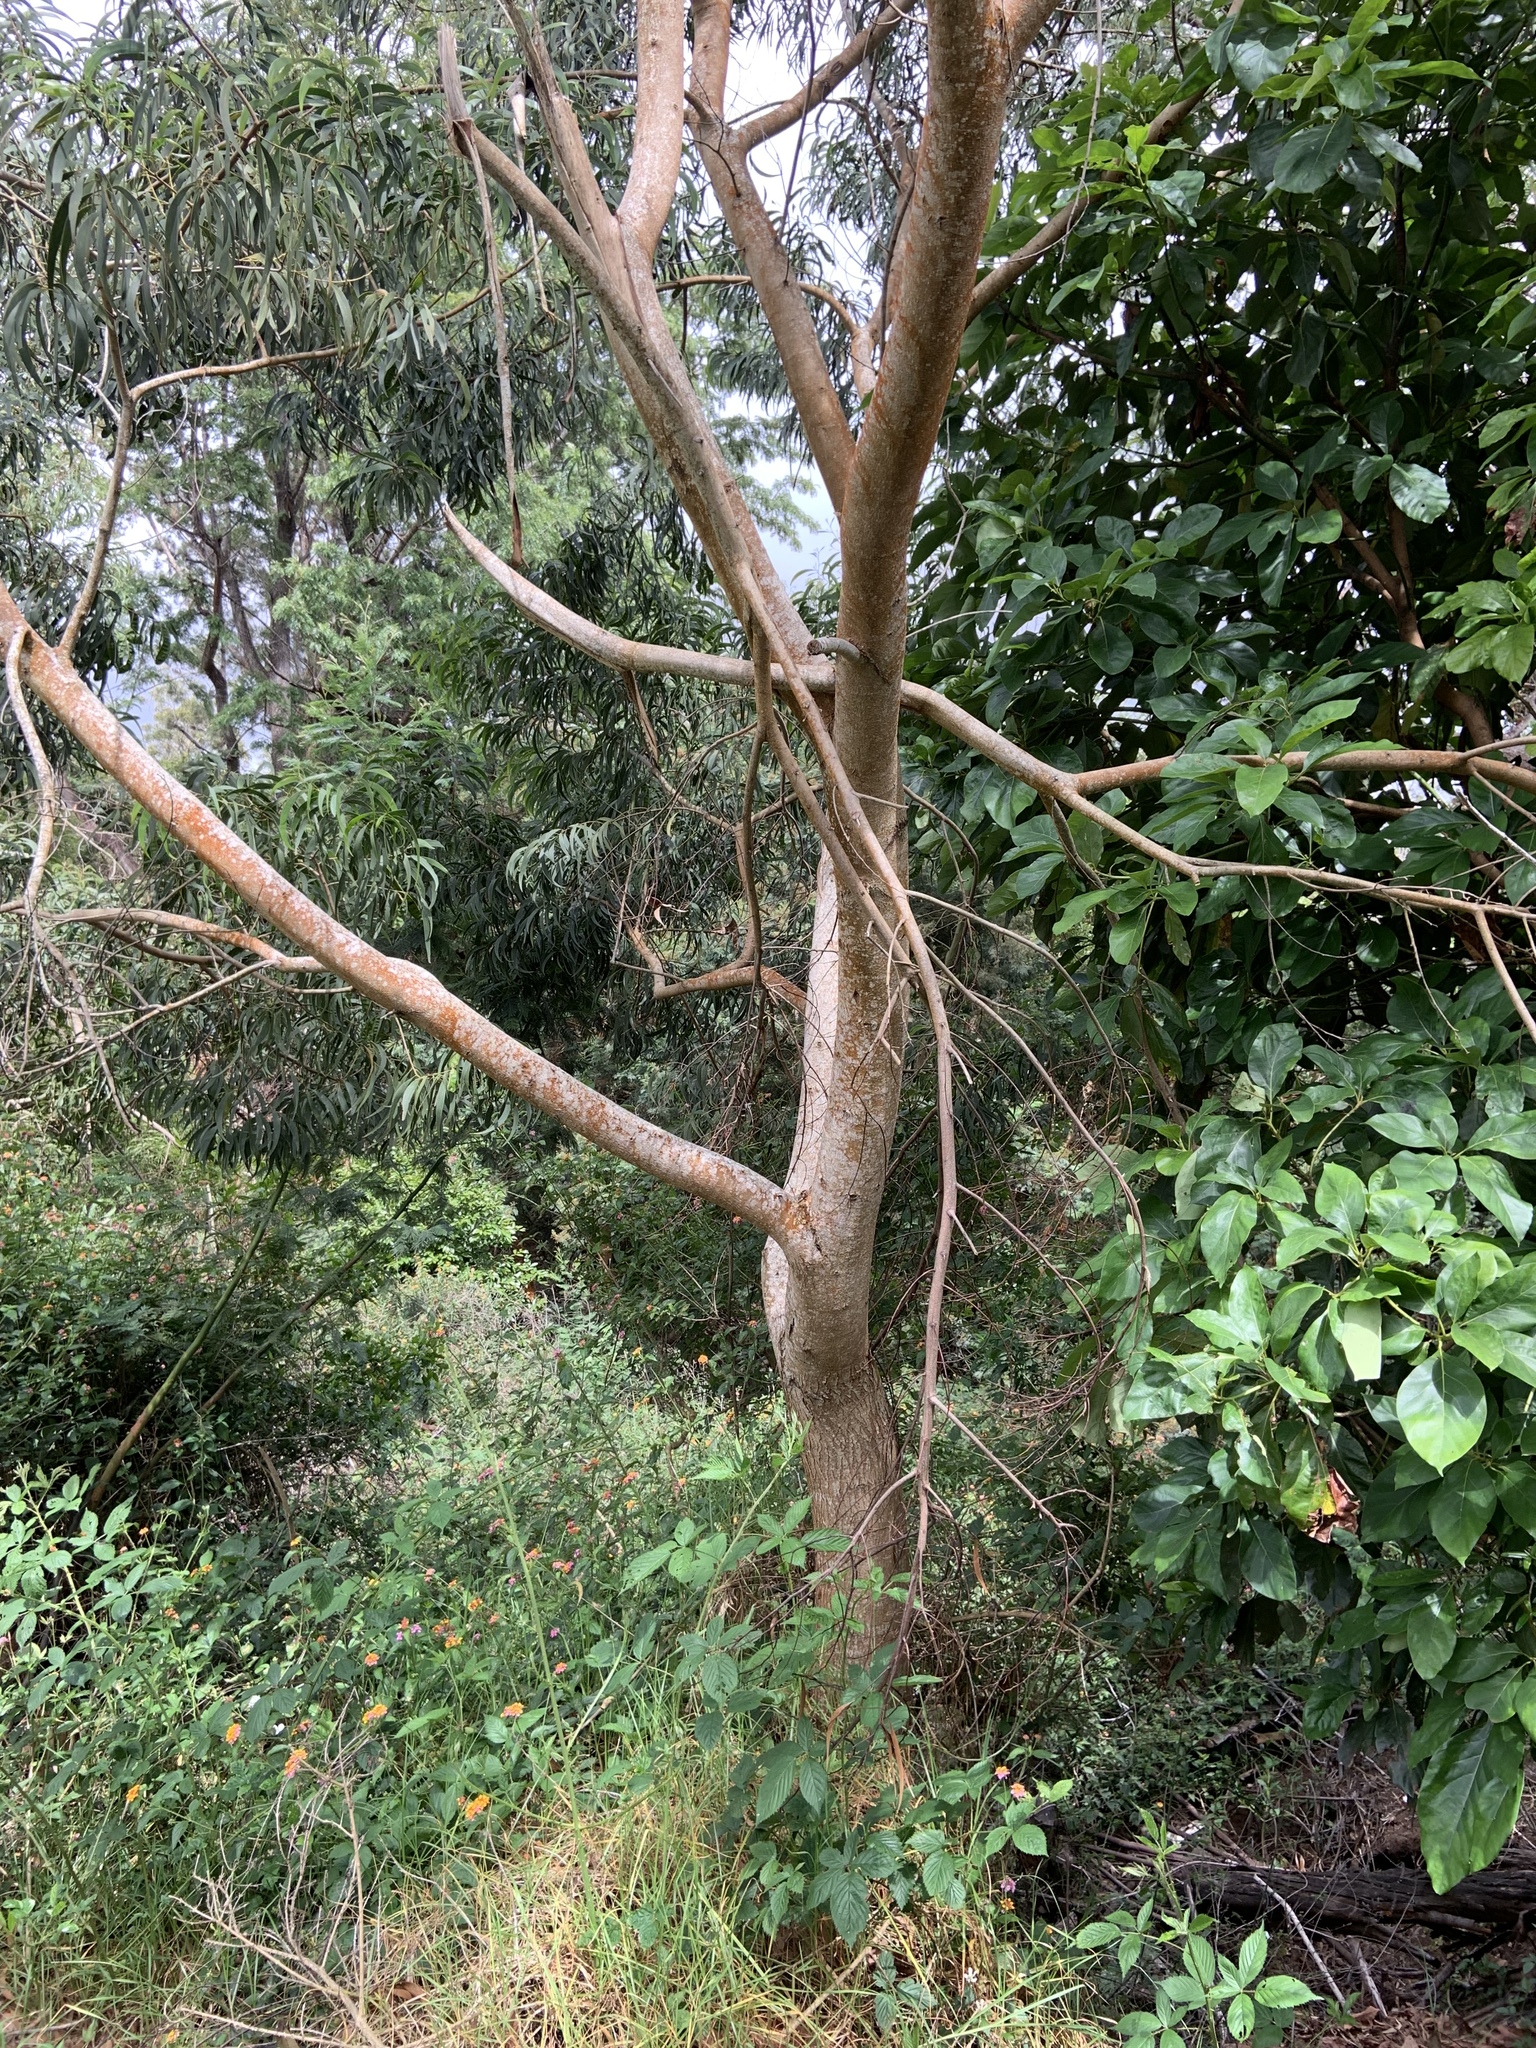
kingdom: Plantae
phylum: Tracheophyta
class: Magnoliopsida
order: Fabales
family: Fabaceae
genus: Acacia
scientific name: Acacia koa
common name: Gray koa
